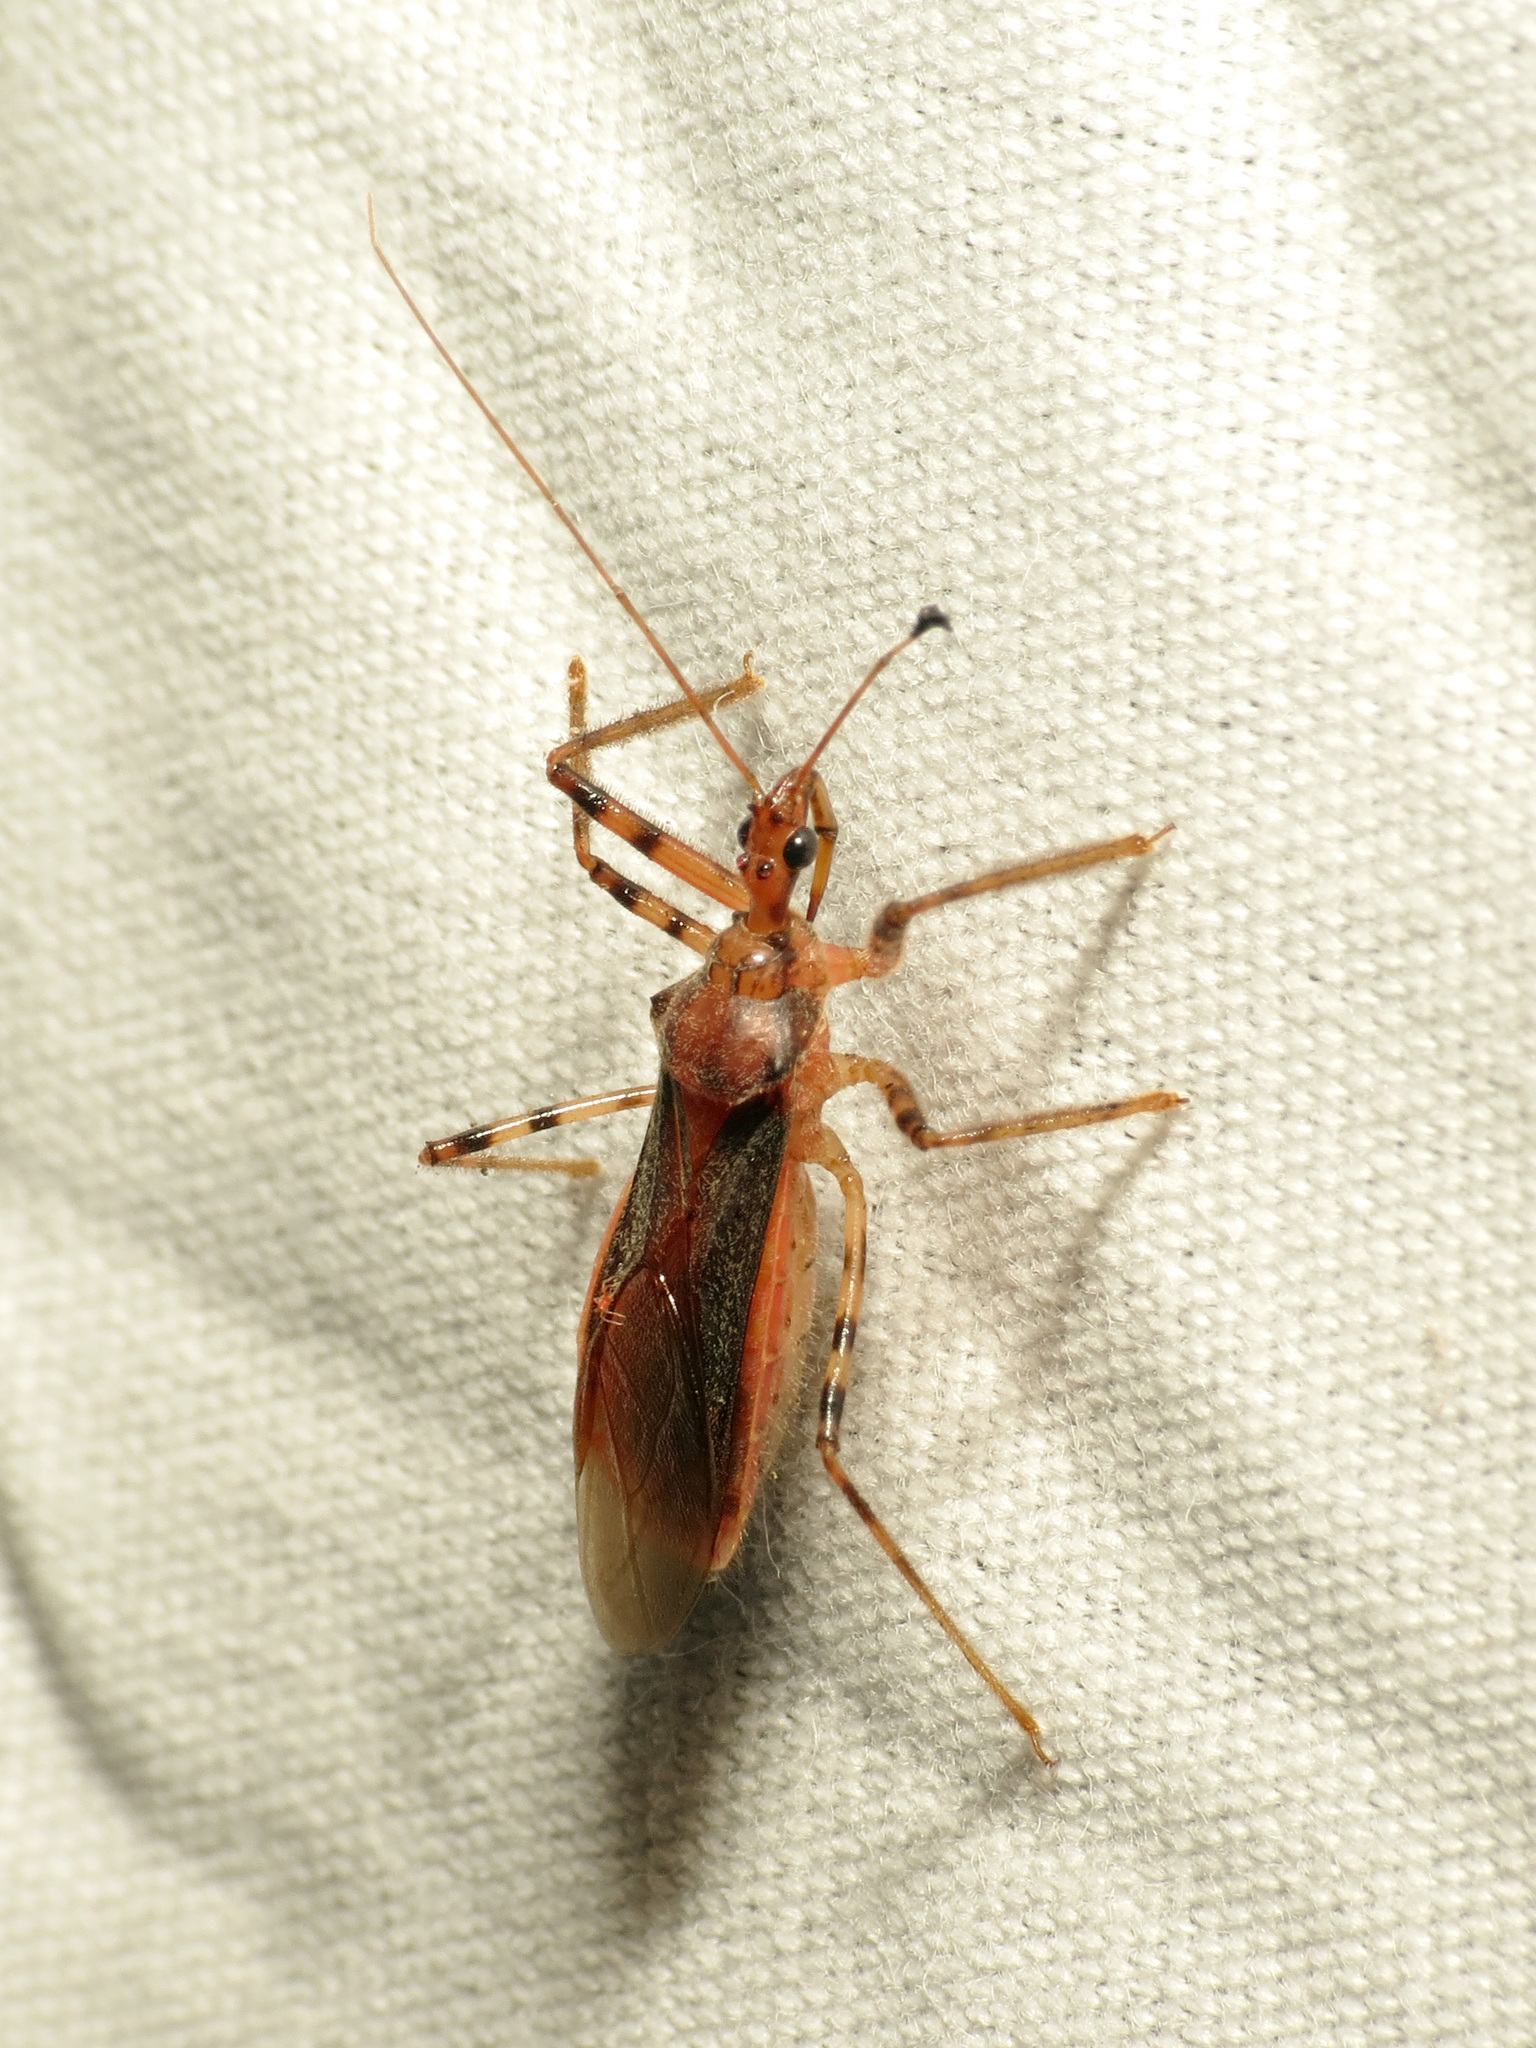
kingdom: Animalia
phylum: Arthropoda
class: Insecta
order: Hemiptera
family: Reduviidae
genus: Castolus
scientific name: Castolus ferox
